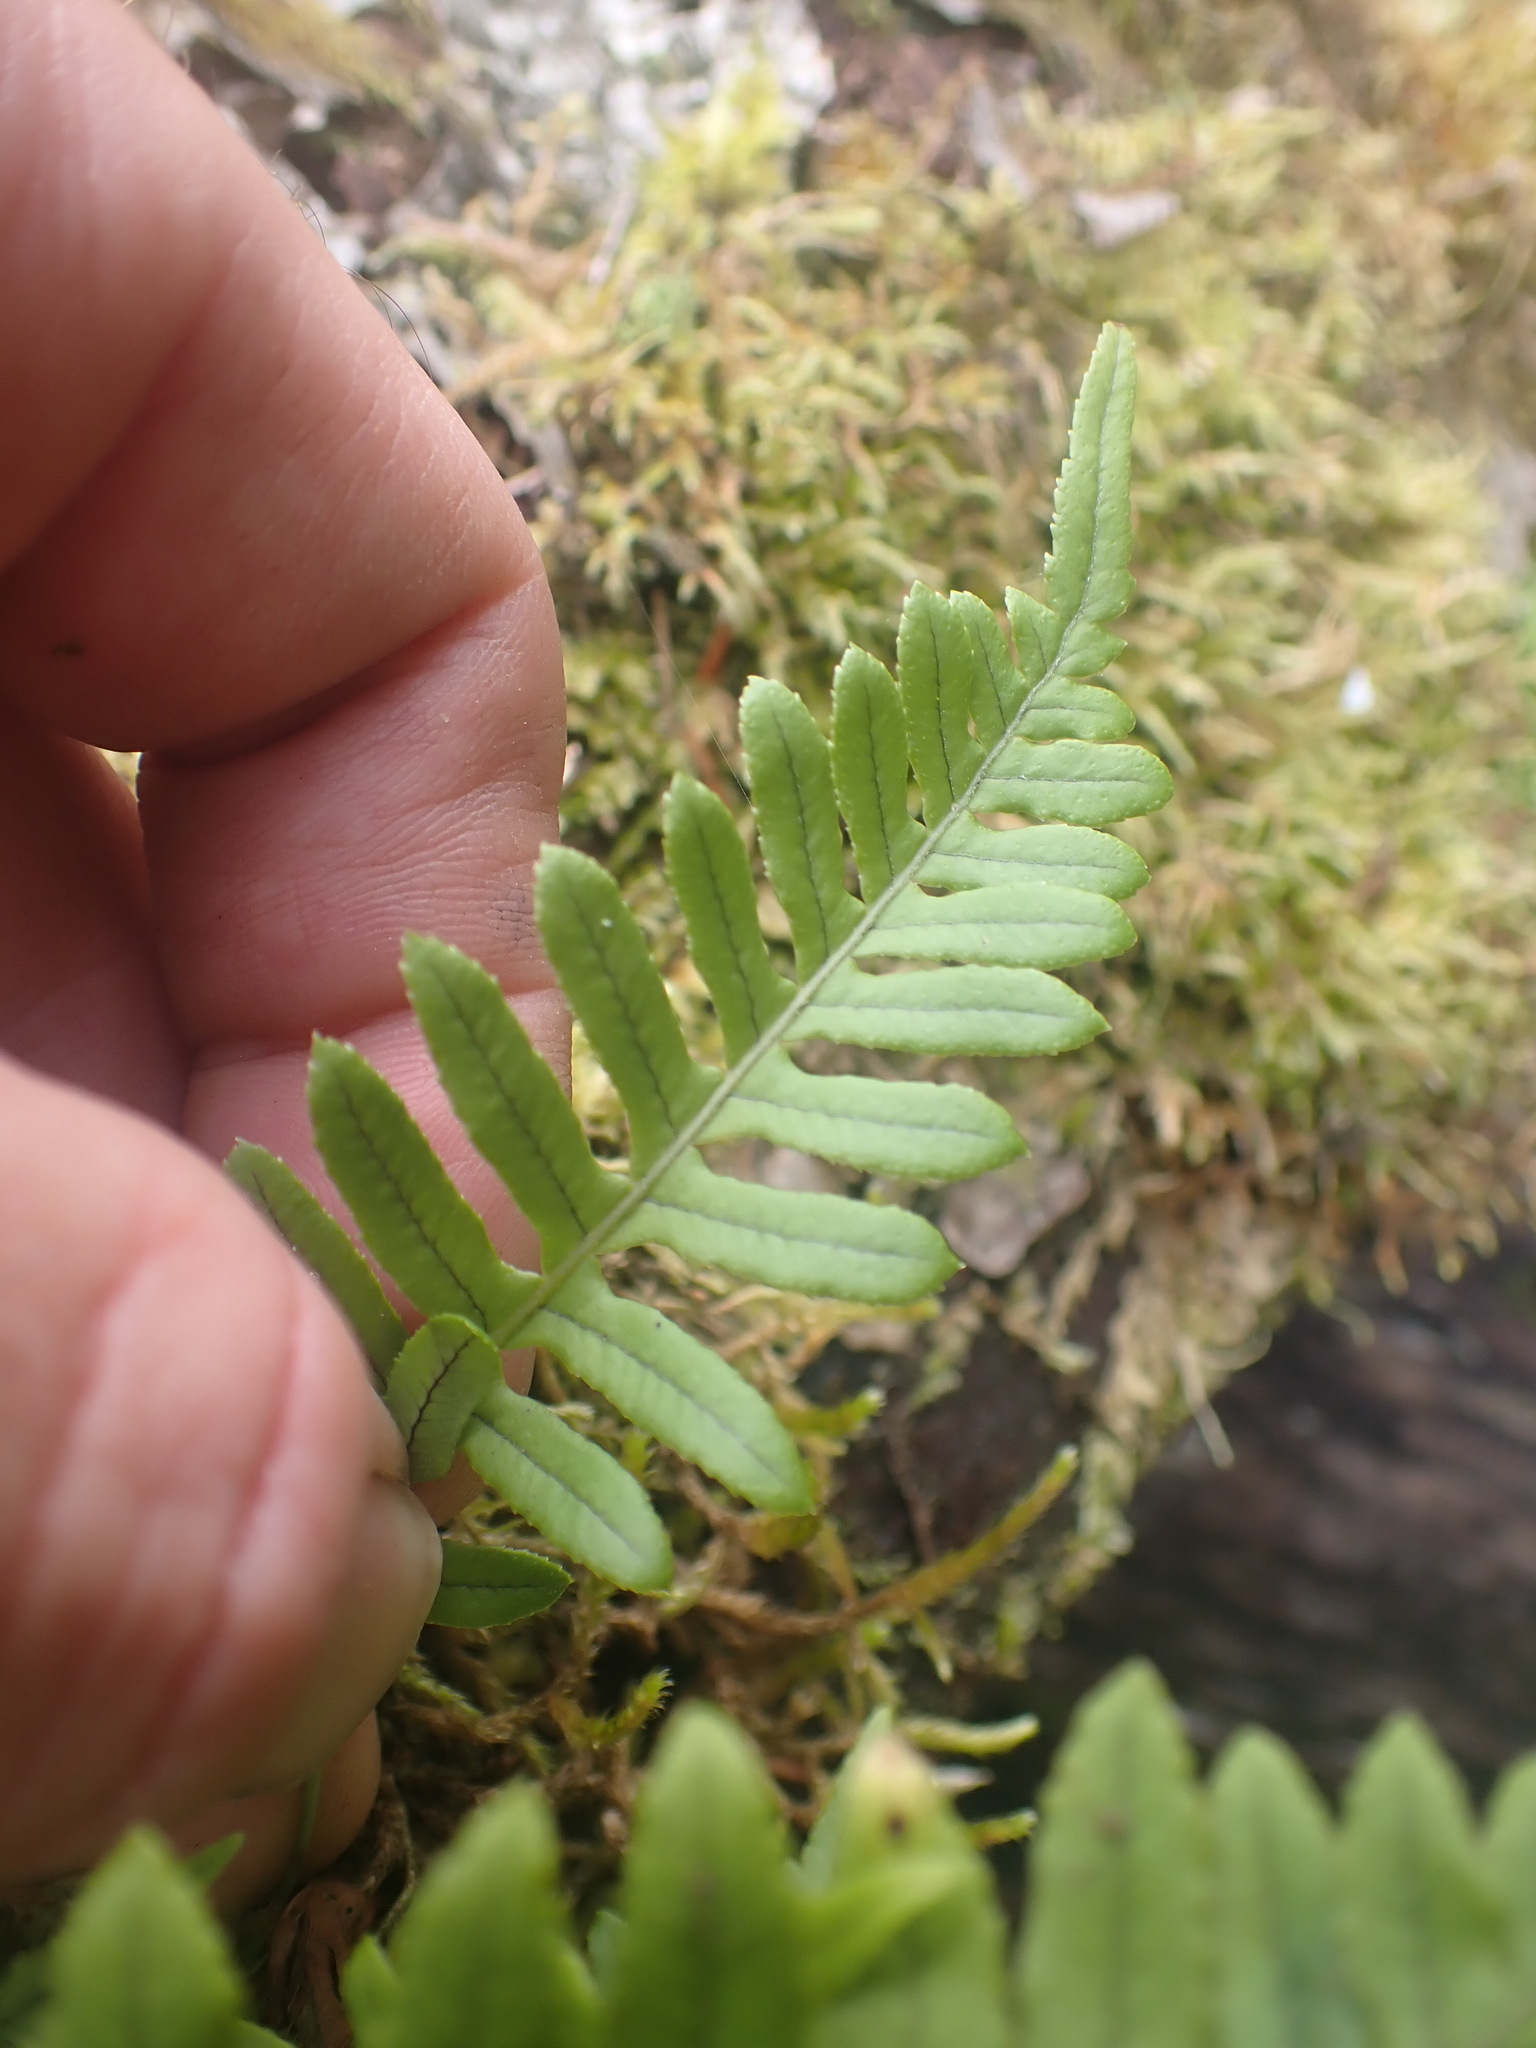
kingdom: Plantae
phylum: Tracheophyta
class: Polypodiopsida
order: Polypodiales
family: Polypodiaceae
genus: Polypodium
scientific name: Polypodium glycyrrhiza
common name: Licorice fern
